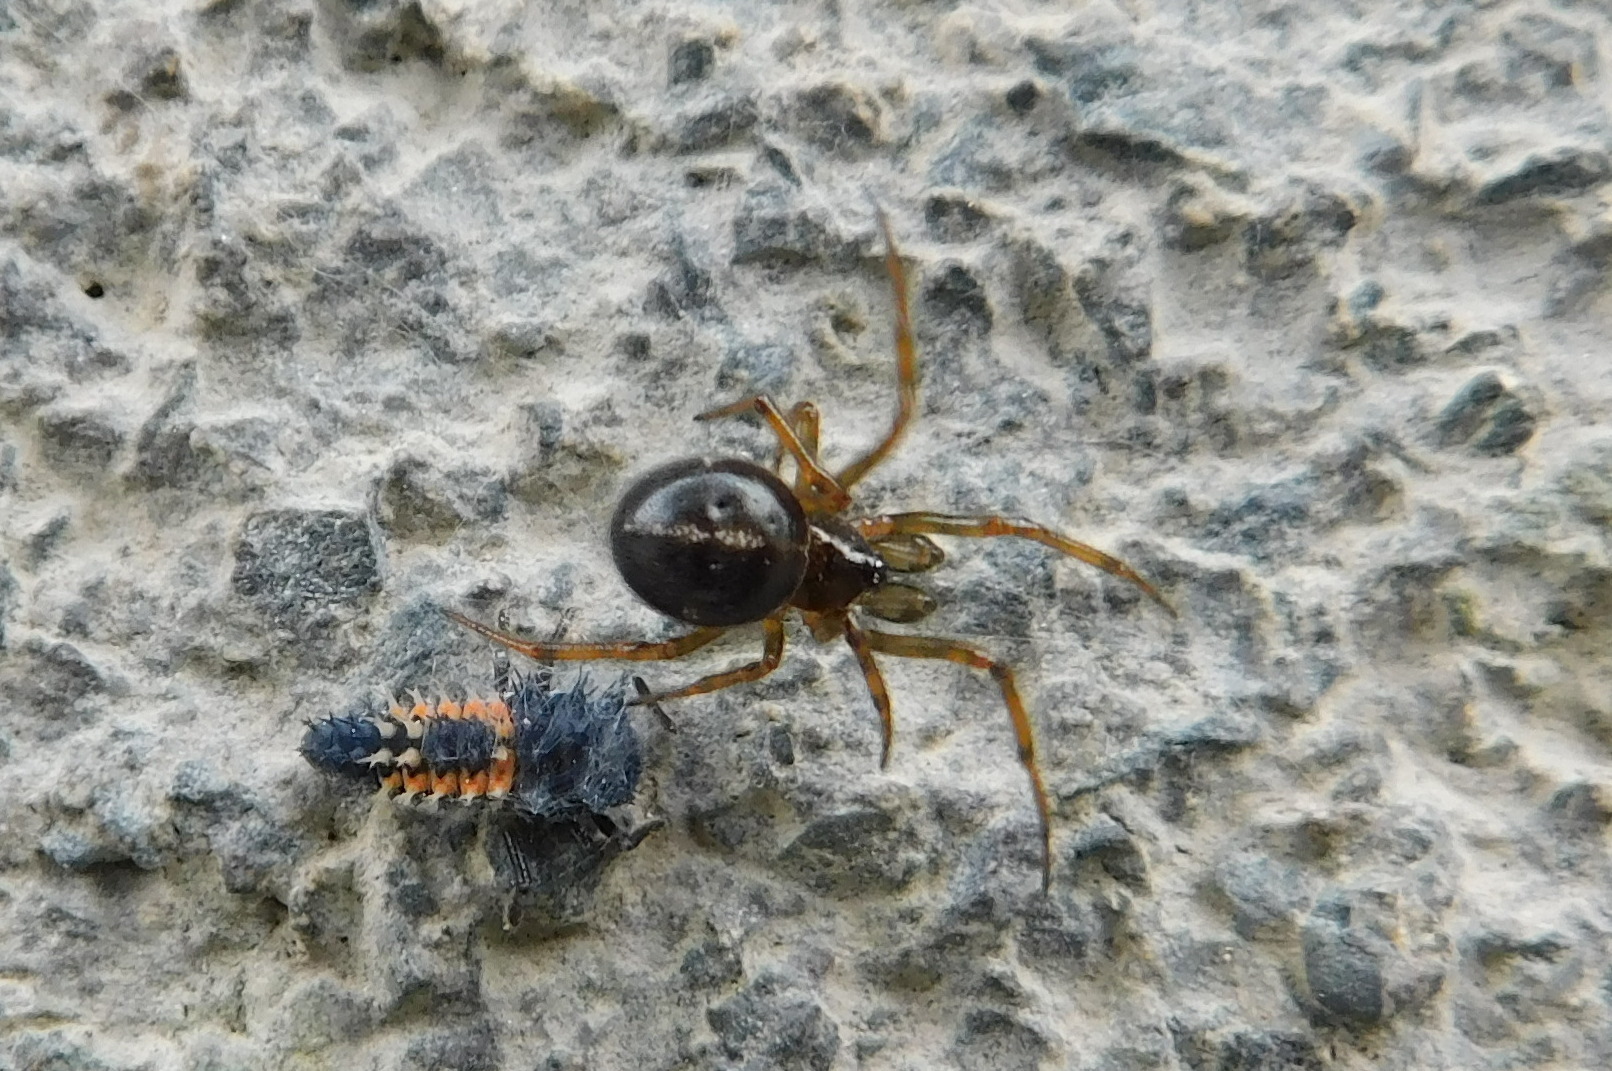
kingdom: Animalia
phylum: Arthropoda
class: Arachnida
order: Araneae
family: Theridiidae
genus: Steatoda
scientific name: Steatoda bipunctata
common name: False widow
